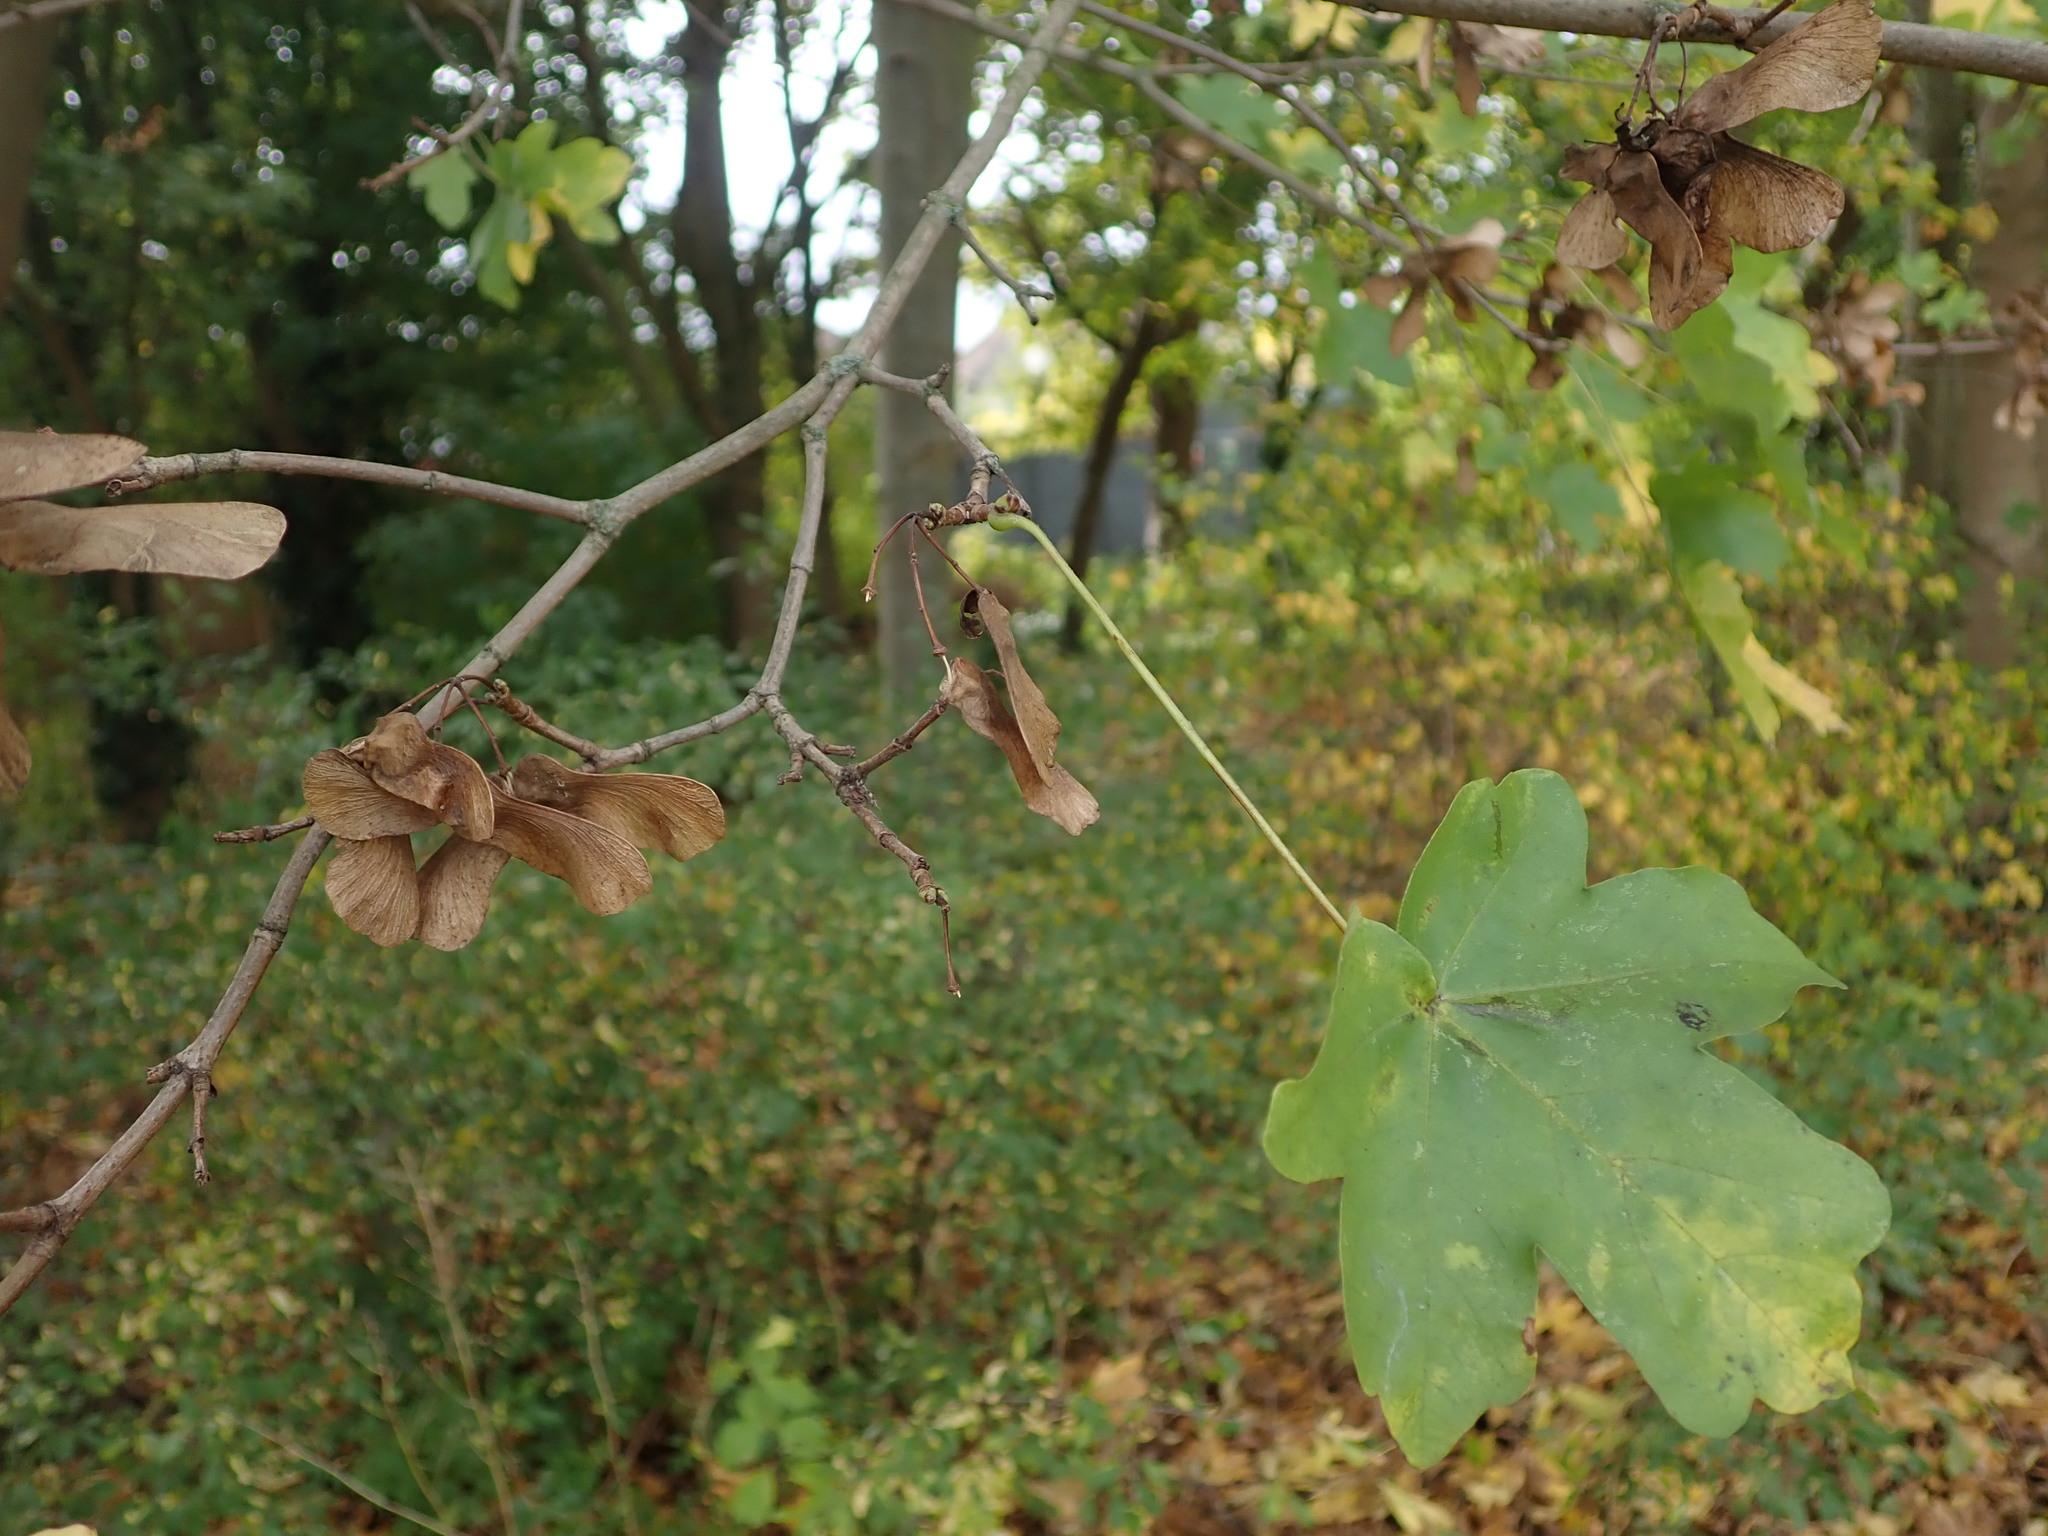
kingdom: Plantae
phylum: Tracheophyta
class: Magnoliopsida
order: Sapindales
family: Sapindaceae
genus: Acer
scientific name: Acer campestre
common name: Field maple
